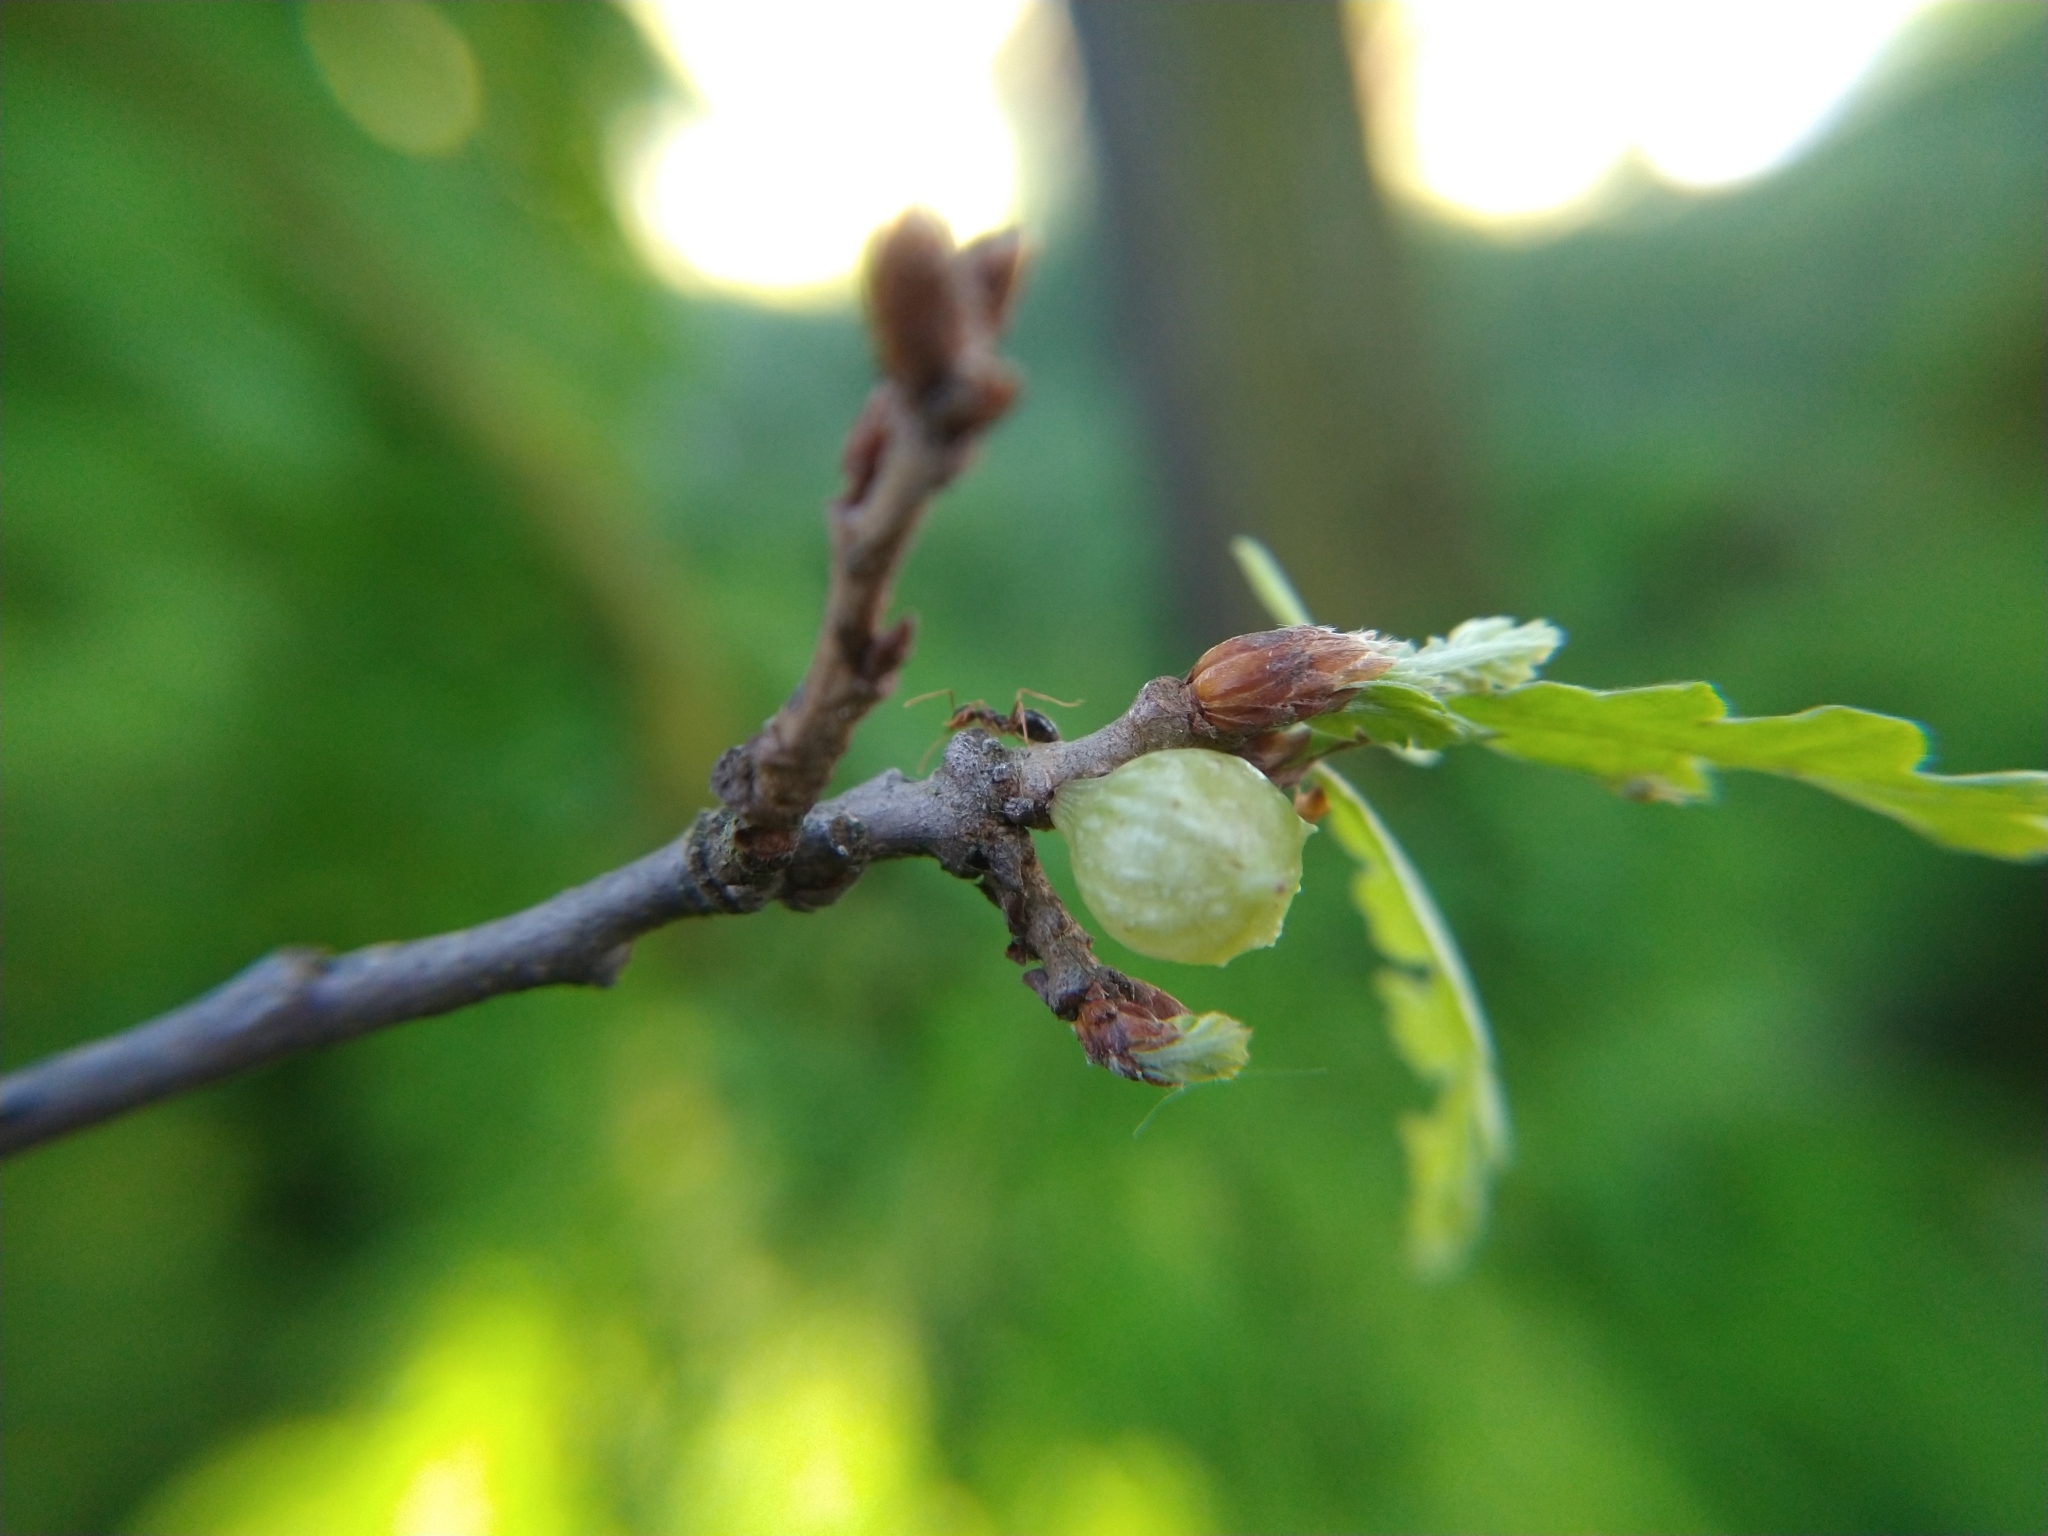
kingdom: Animalia
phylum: Arthropoda
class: Insecta
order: Hymenoptera
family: Cynipidae
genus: Cynips
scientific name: Cynips douglasi
